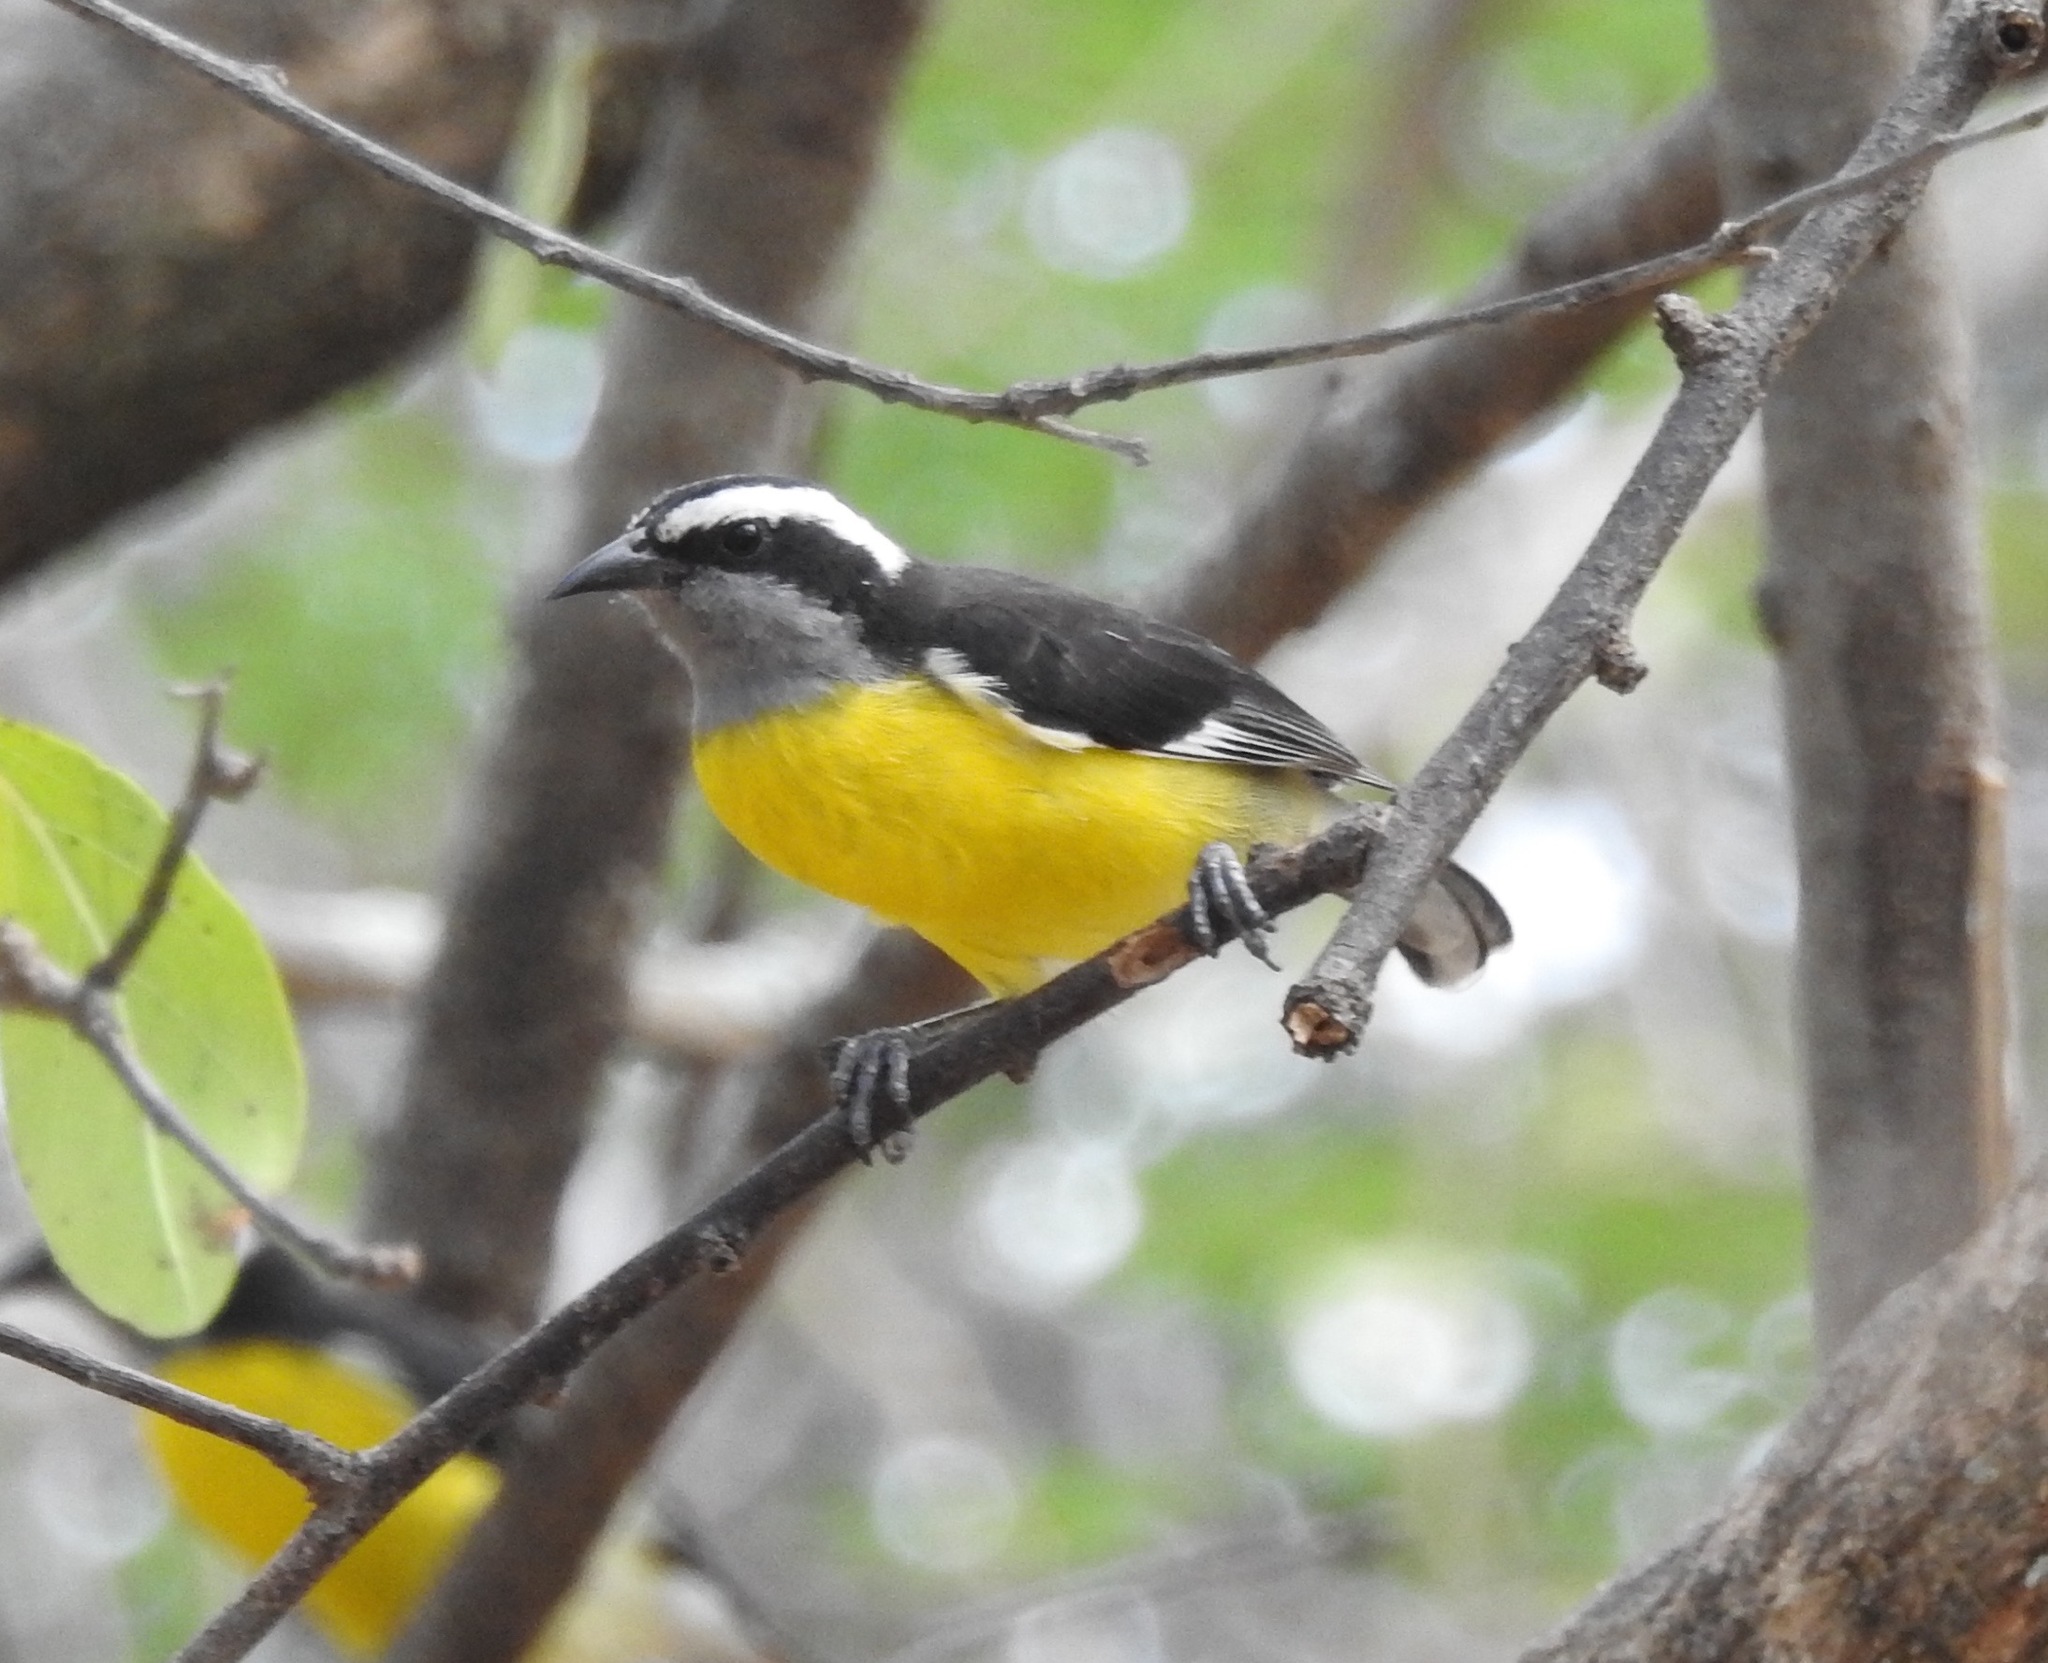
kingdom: Animalia
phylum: Chordata
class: Aves
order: Passeriformes
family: Thraupidae
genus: Coereba
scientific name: Coereba flaveola
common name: Bananaquit
